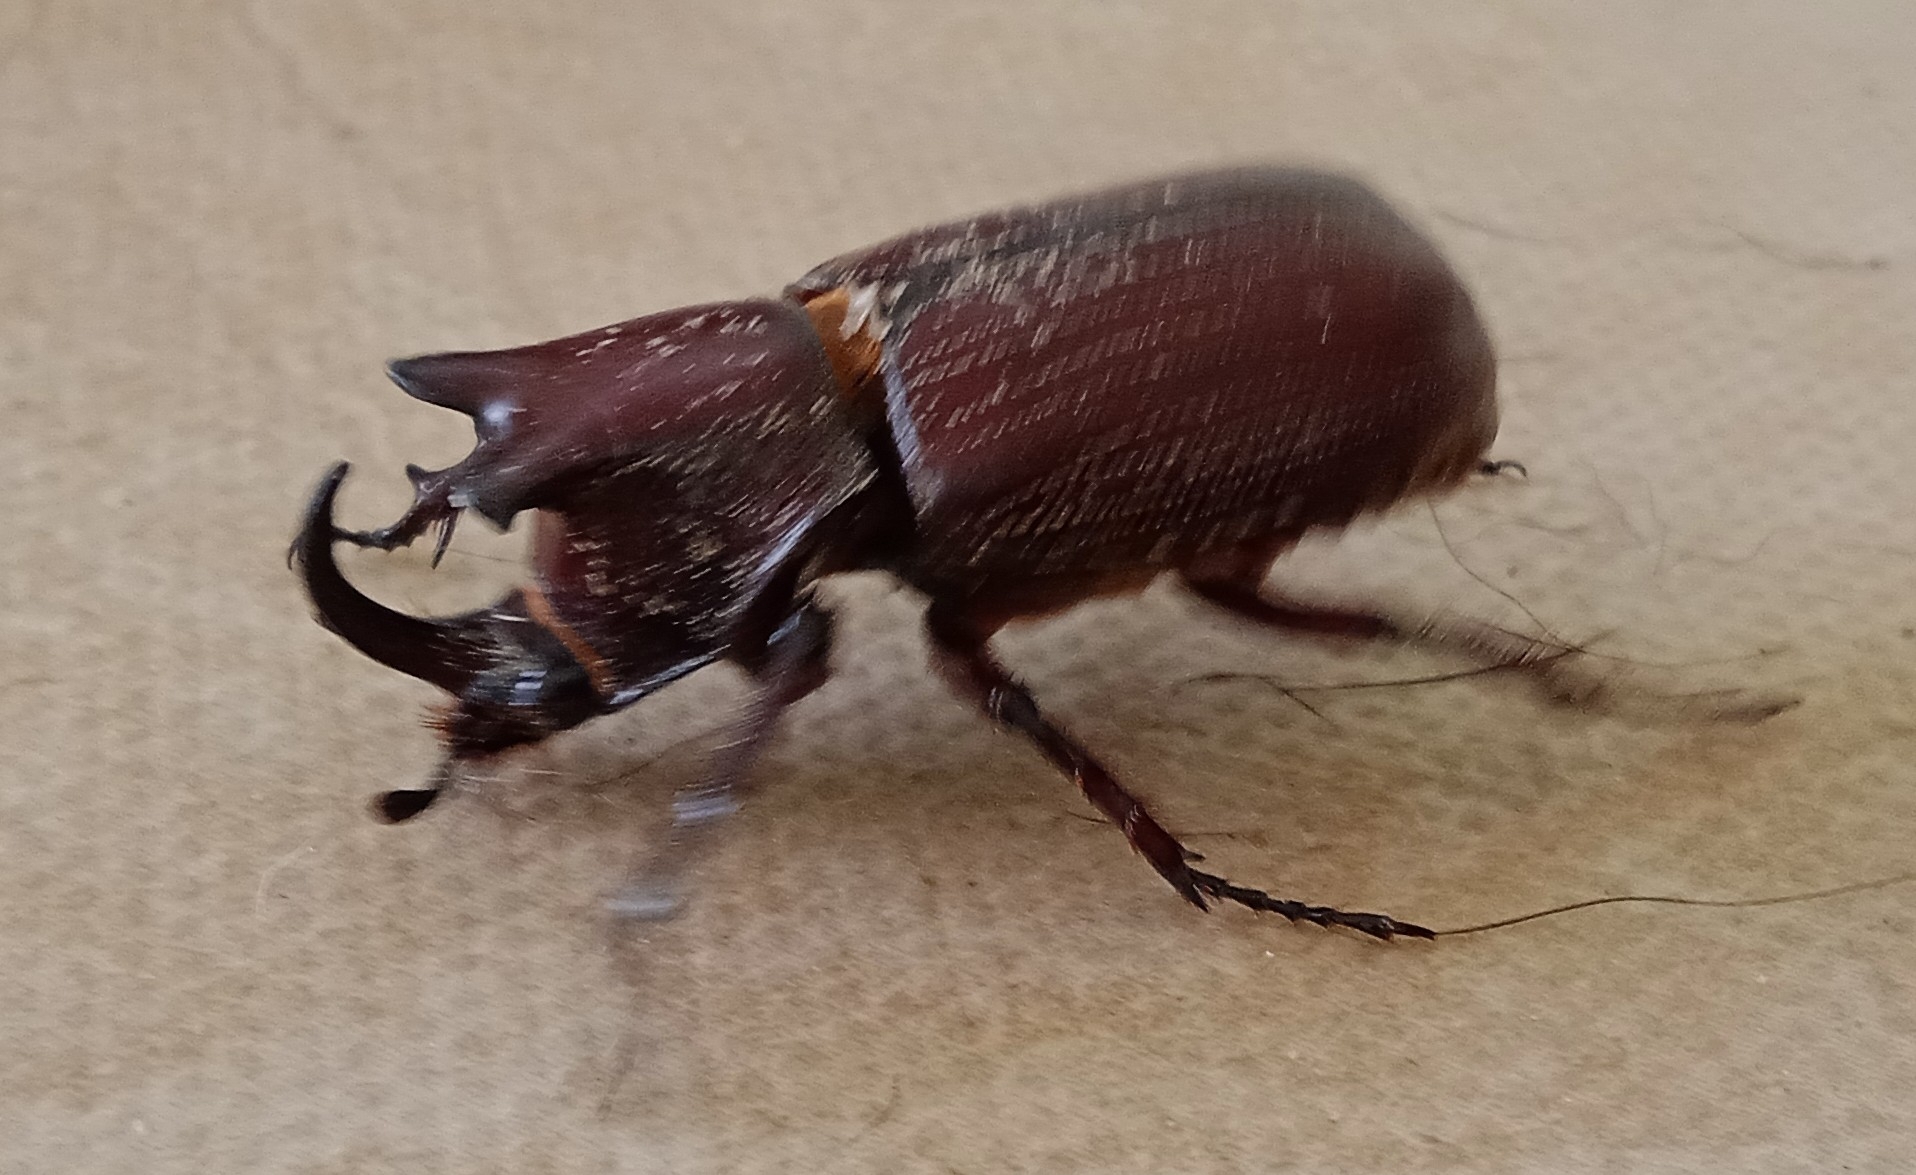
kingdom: Animalia
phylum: Arthropoda
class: Insecta
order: Coleoptera
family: Scarabaeidae
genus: Coelosis
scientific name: Coelosis biloba
